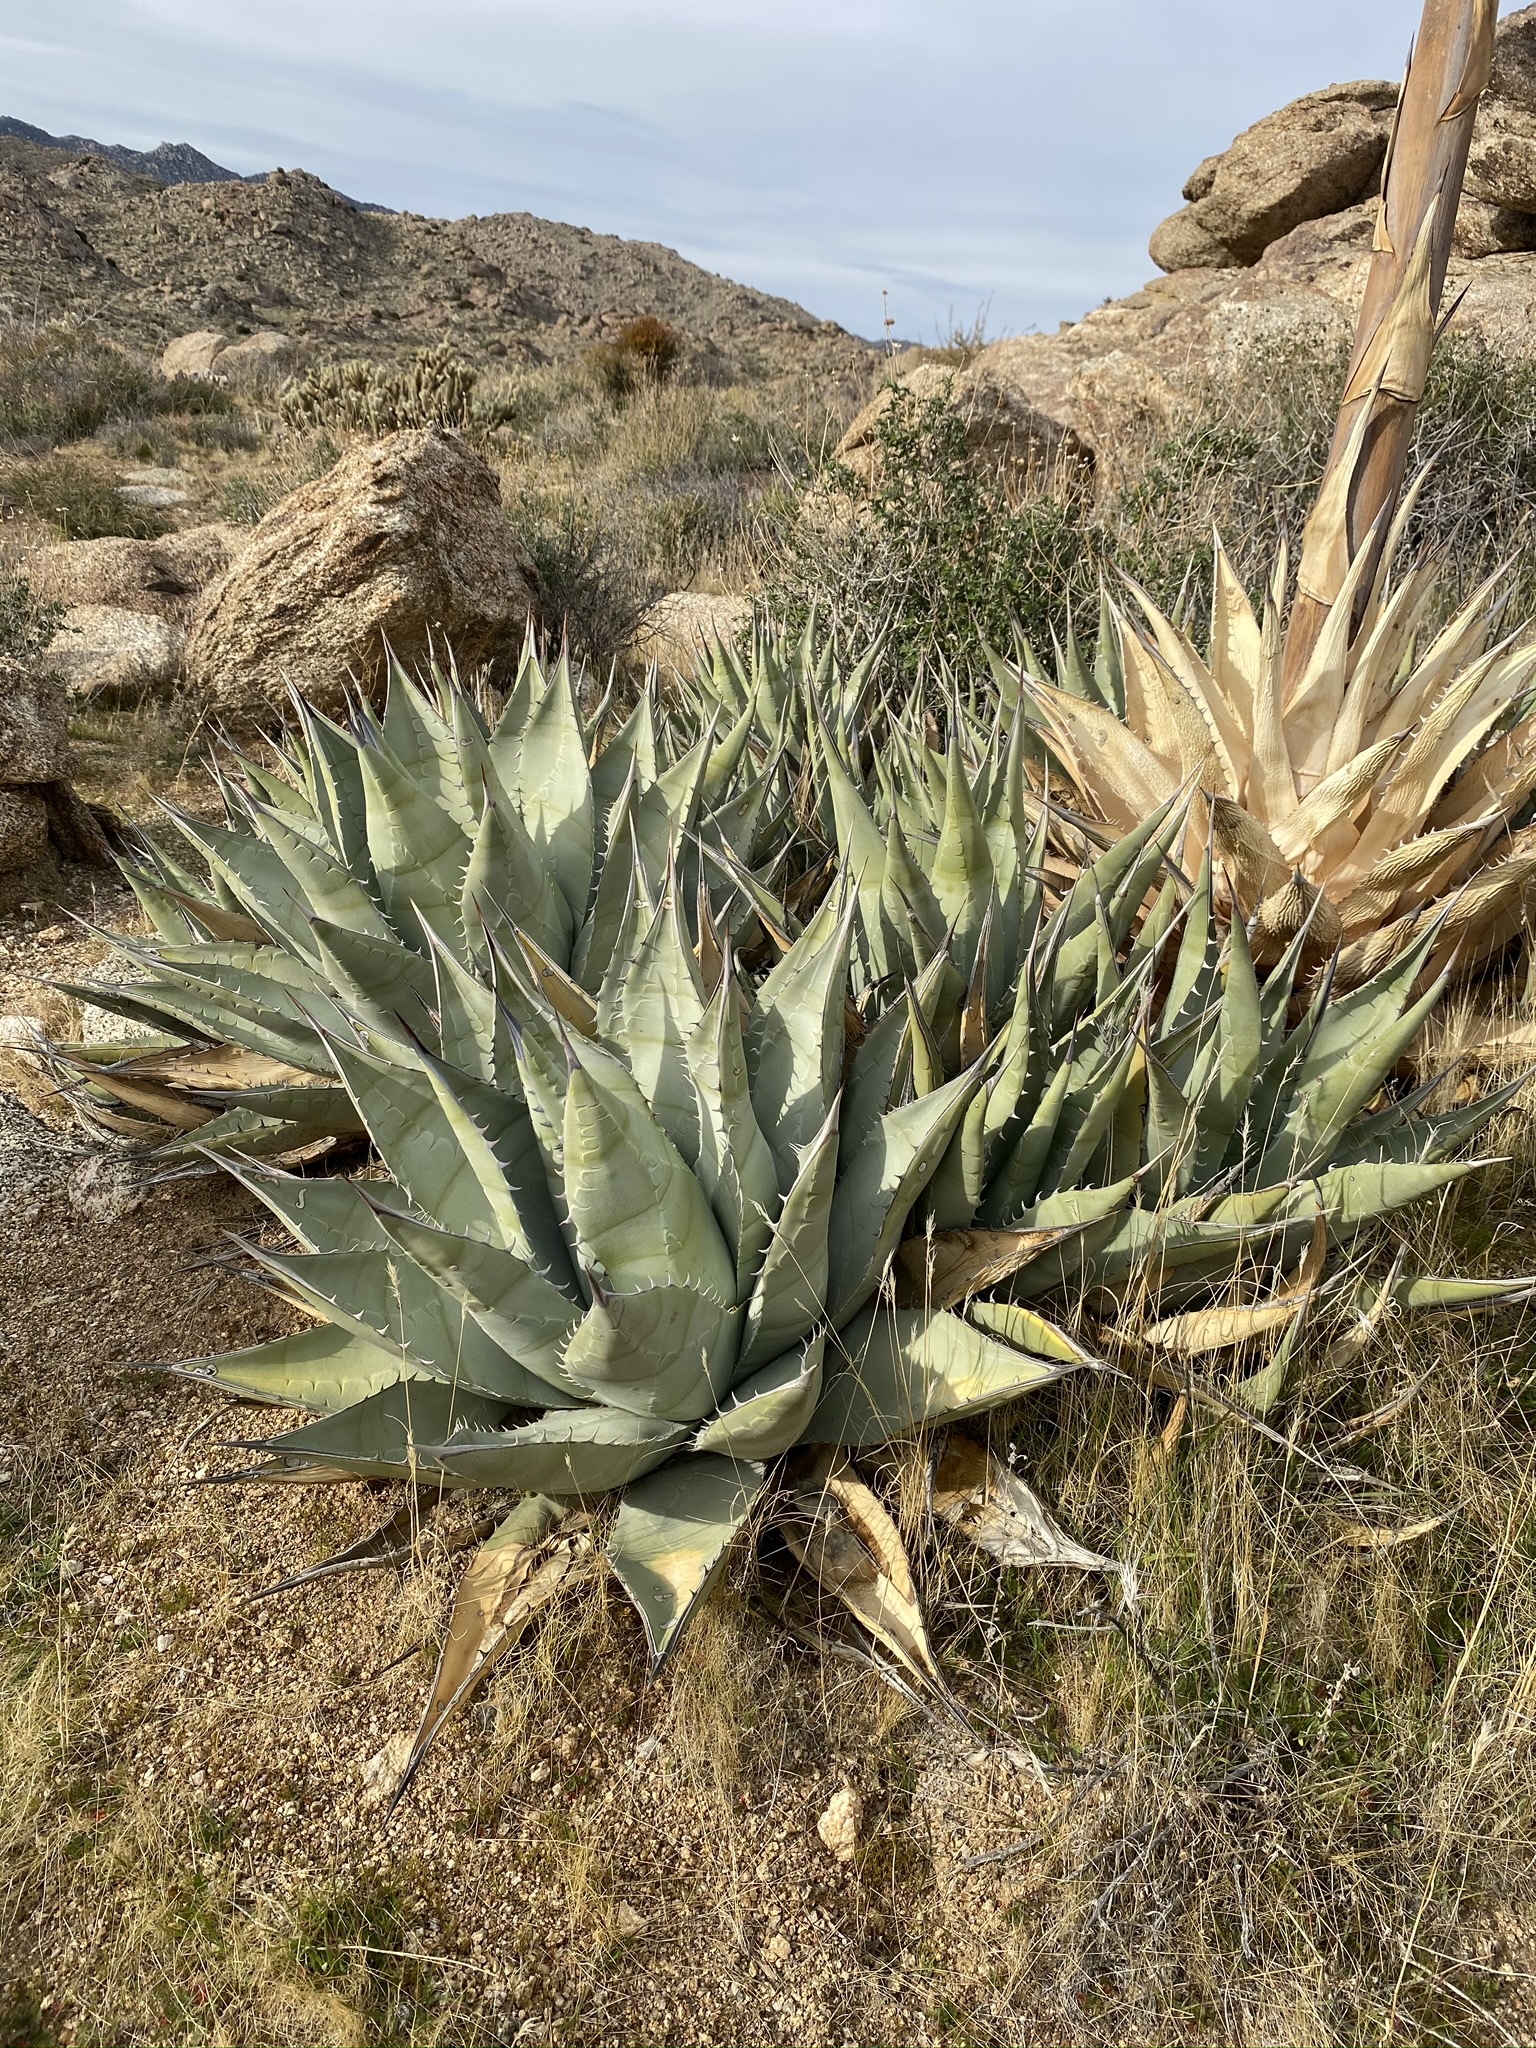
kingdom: Plantae
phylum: Tracheophyta
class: Liliopsida
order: Asparagales
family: Asparagaceae
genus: Agave
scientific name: Agave deserti
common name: Desert agave
